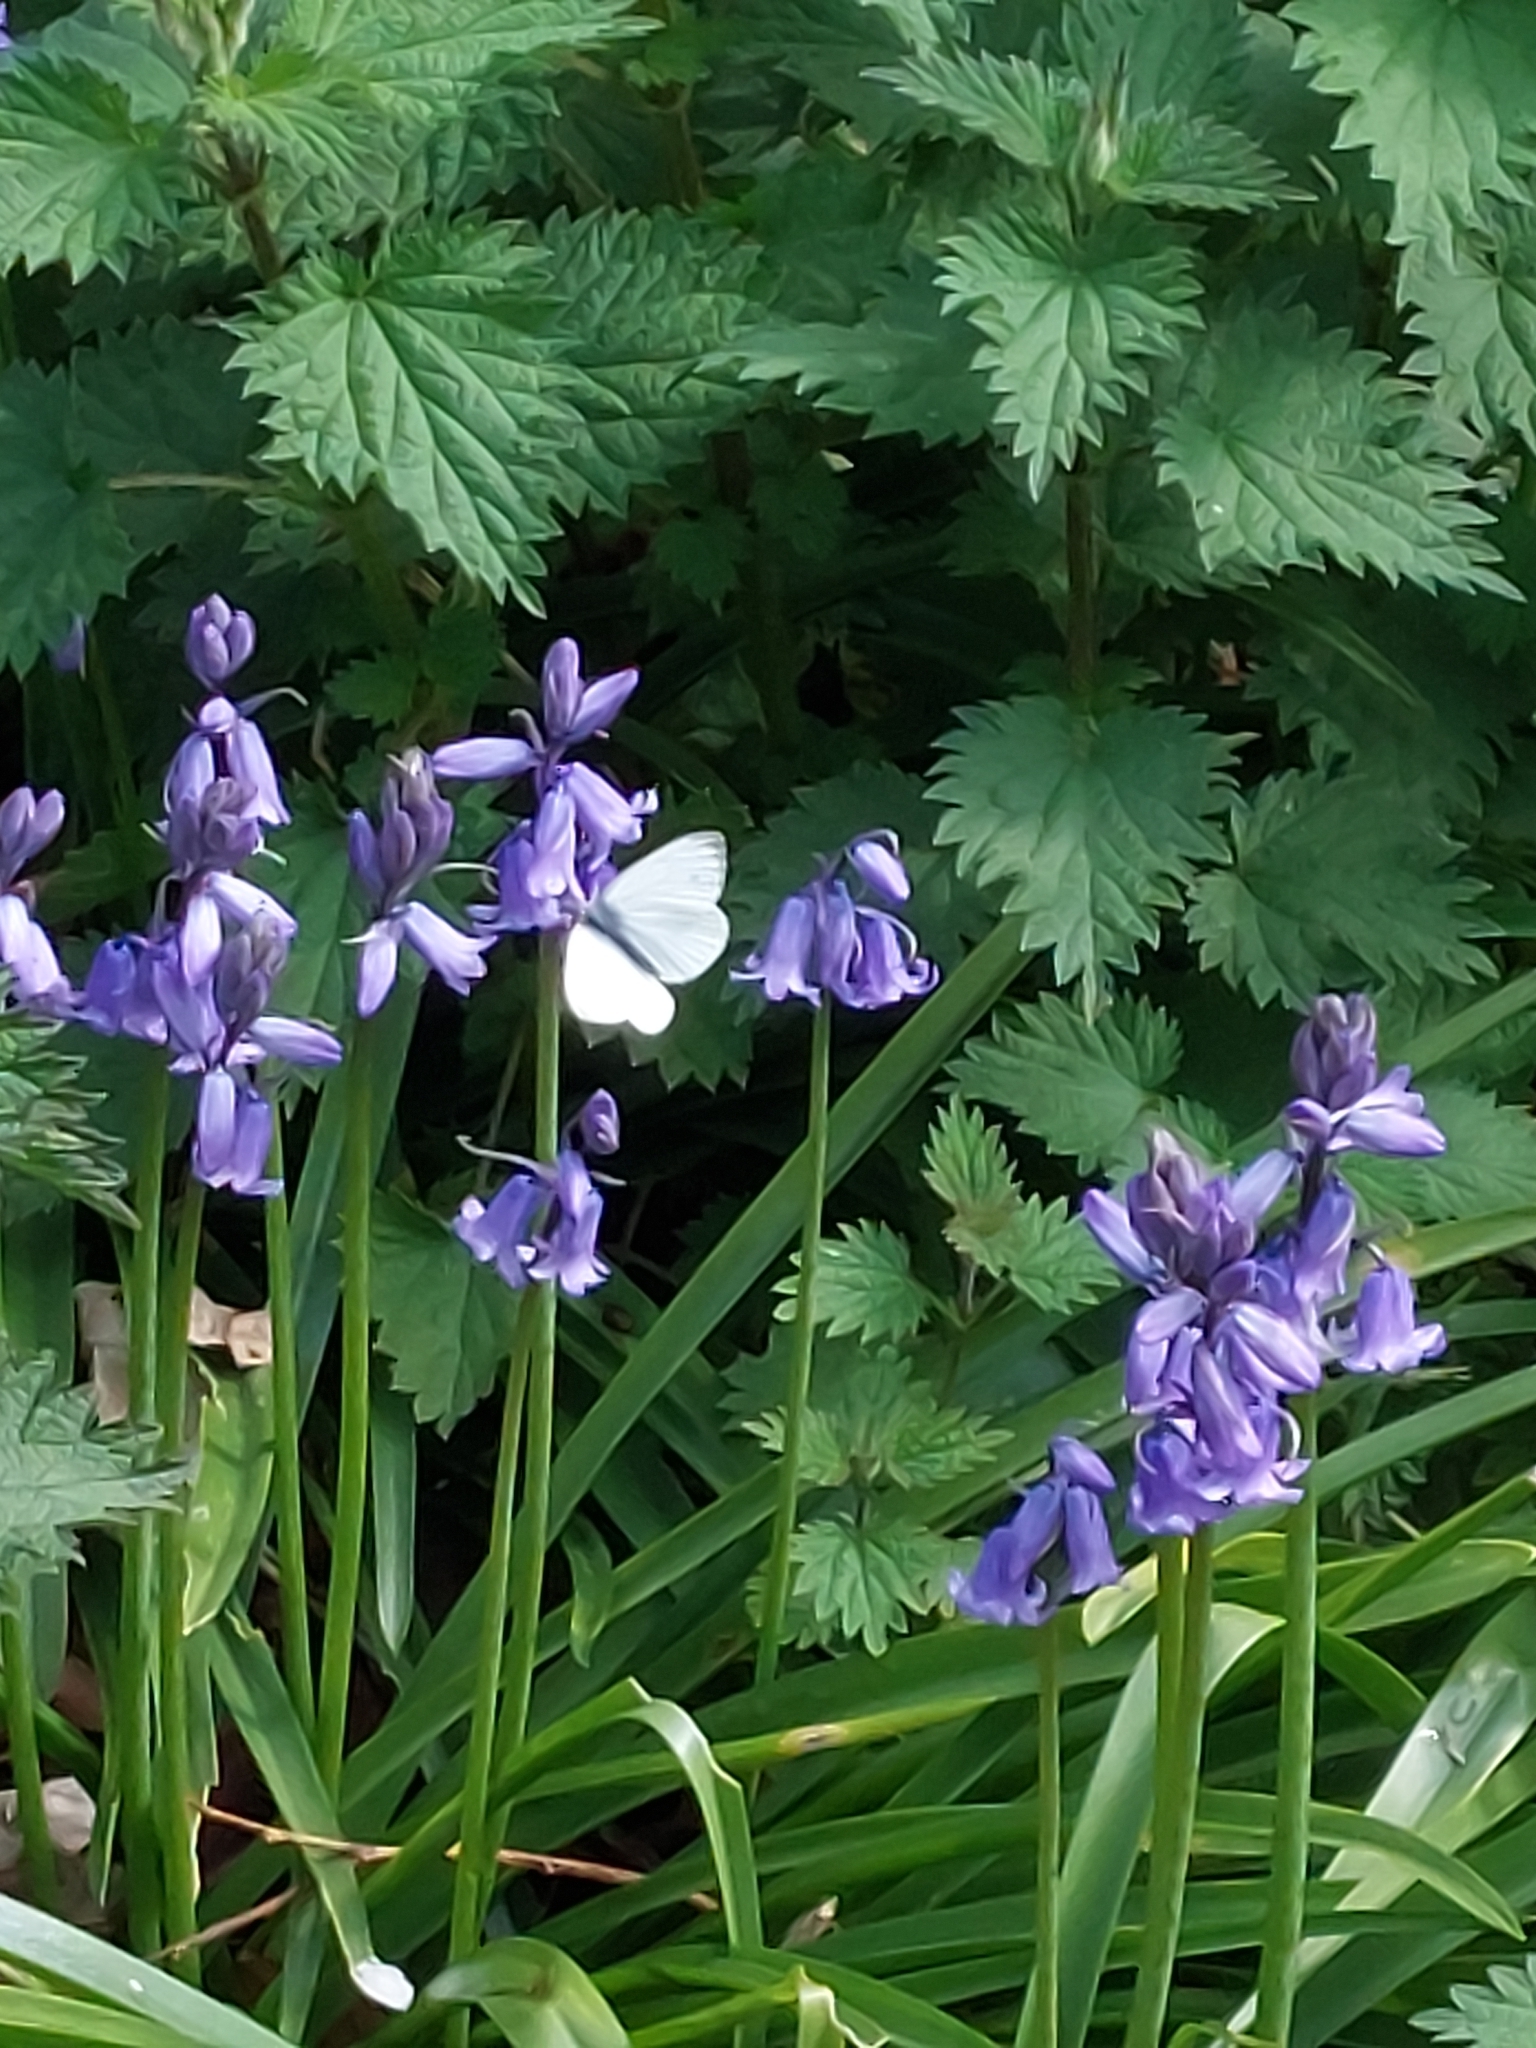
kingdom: Animalia
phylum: Arthropoda
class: Insecta
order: Lepidoptera
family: Pieridae
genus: Pieris
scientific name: Pieris napi
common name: Green-veined white
